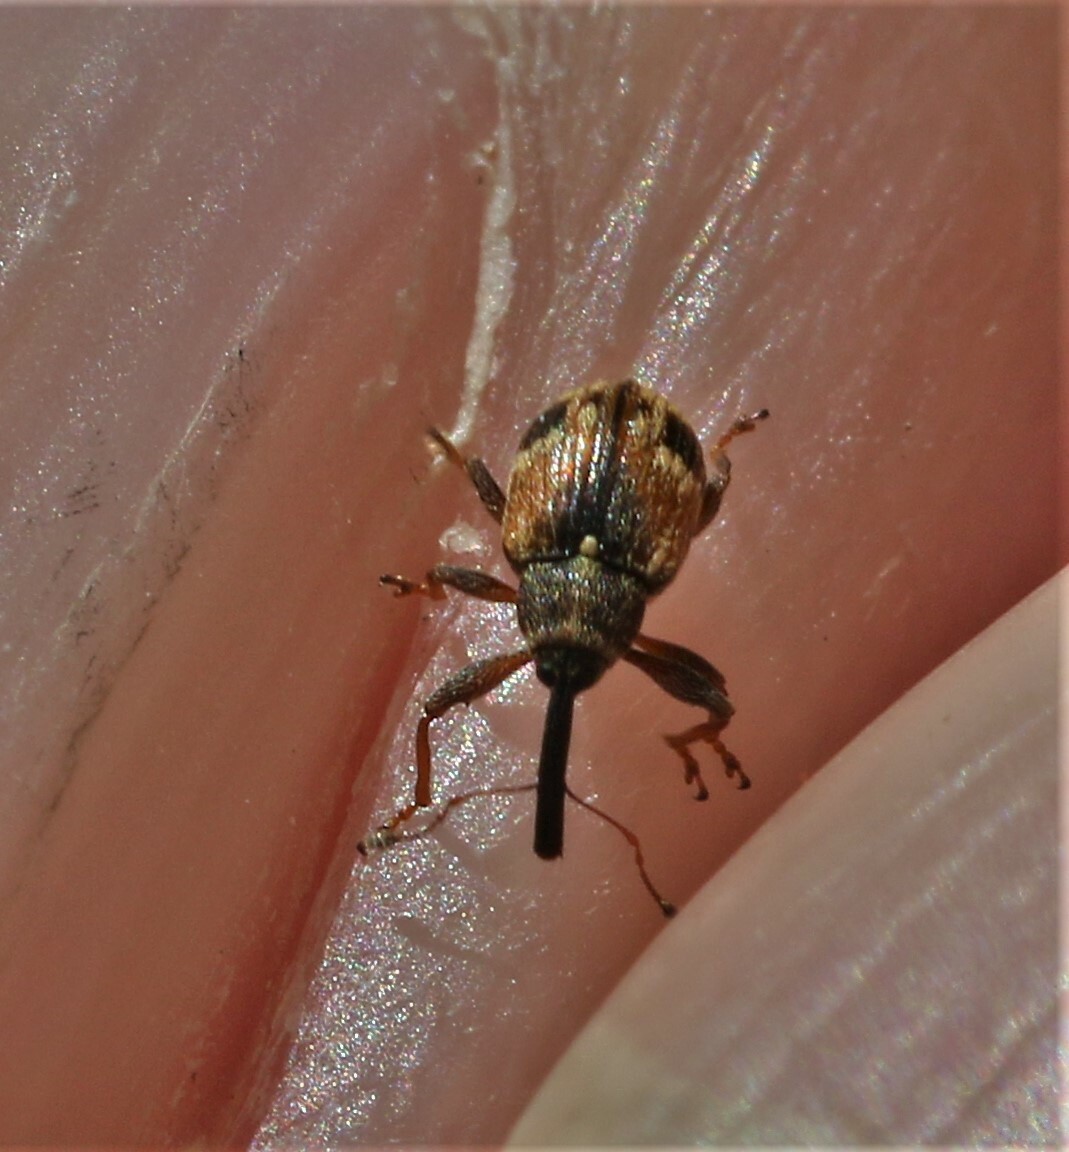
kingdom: Animalia
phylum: Arthropoda
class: Insecta
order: Coleoptera
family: Curculionidae
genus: Anthonomus
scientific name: Anthonomus signatus
